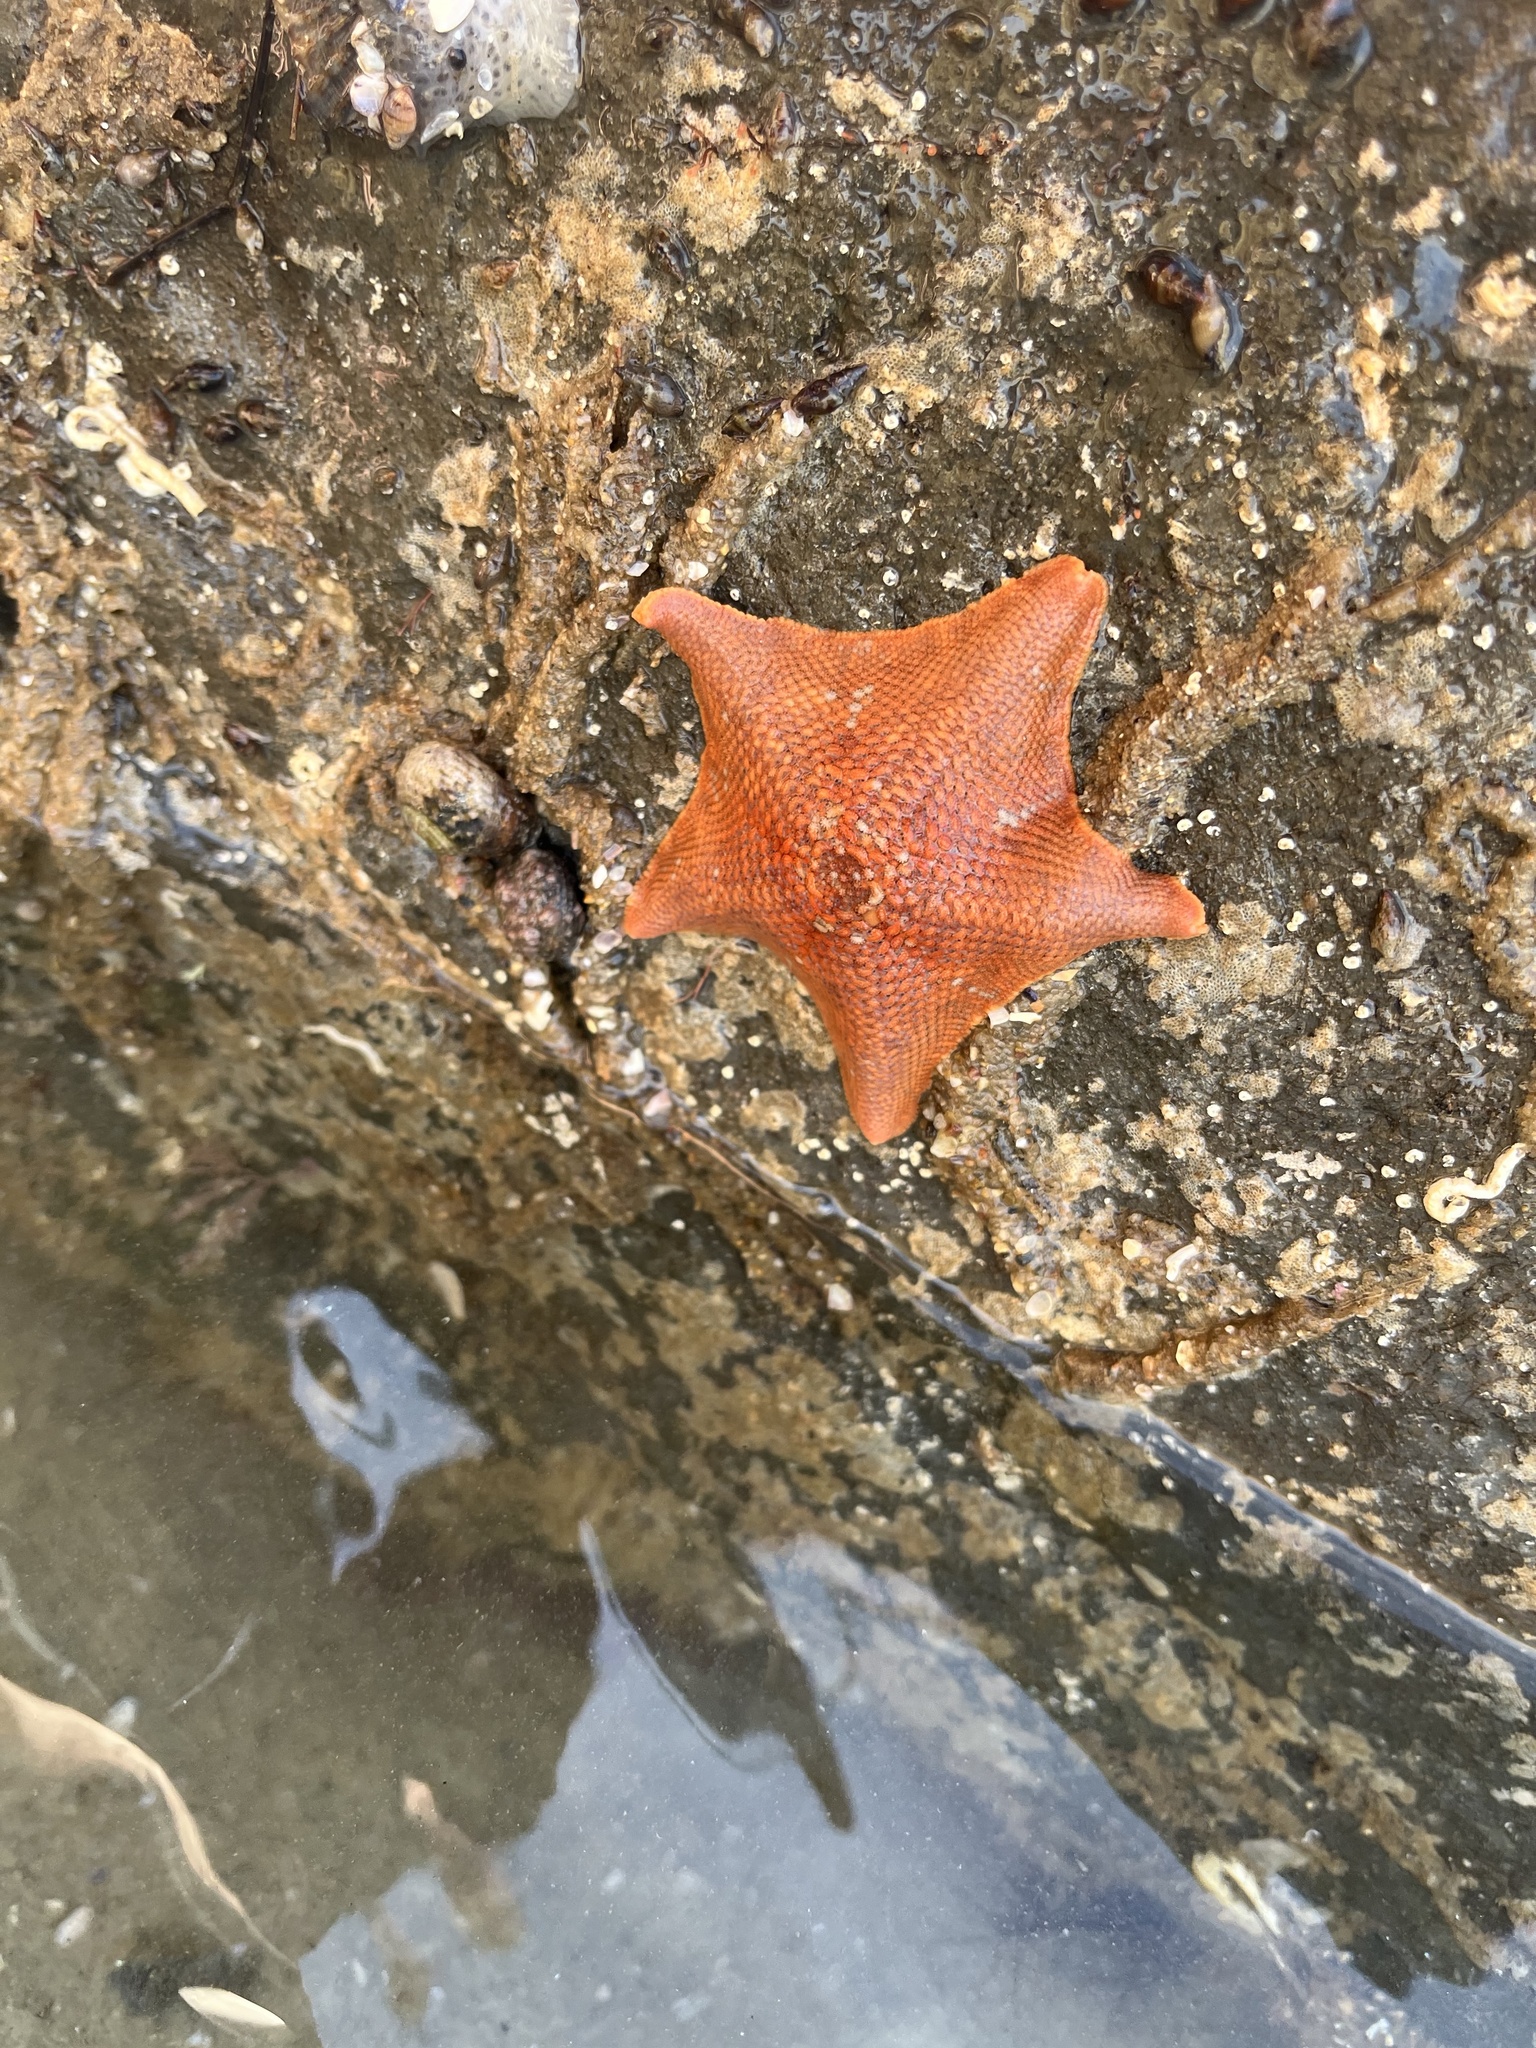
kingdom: Animalia
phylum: Echinodermata
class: Asteroidea
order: Valvatida
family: Asterinidae
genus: Patiria
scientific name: Patiria miniata
